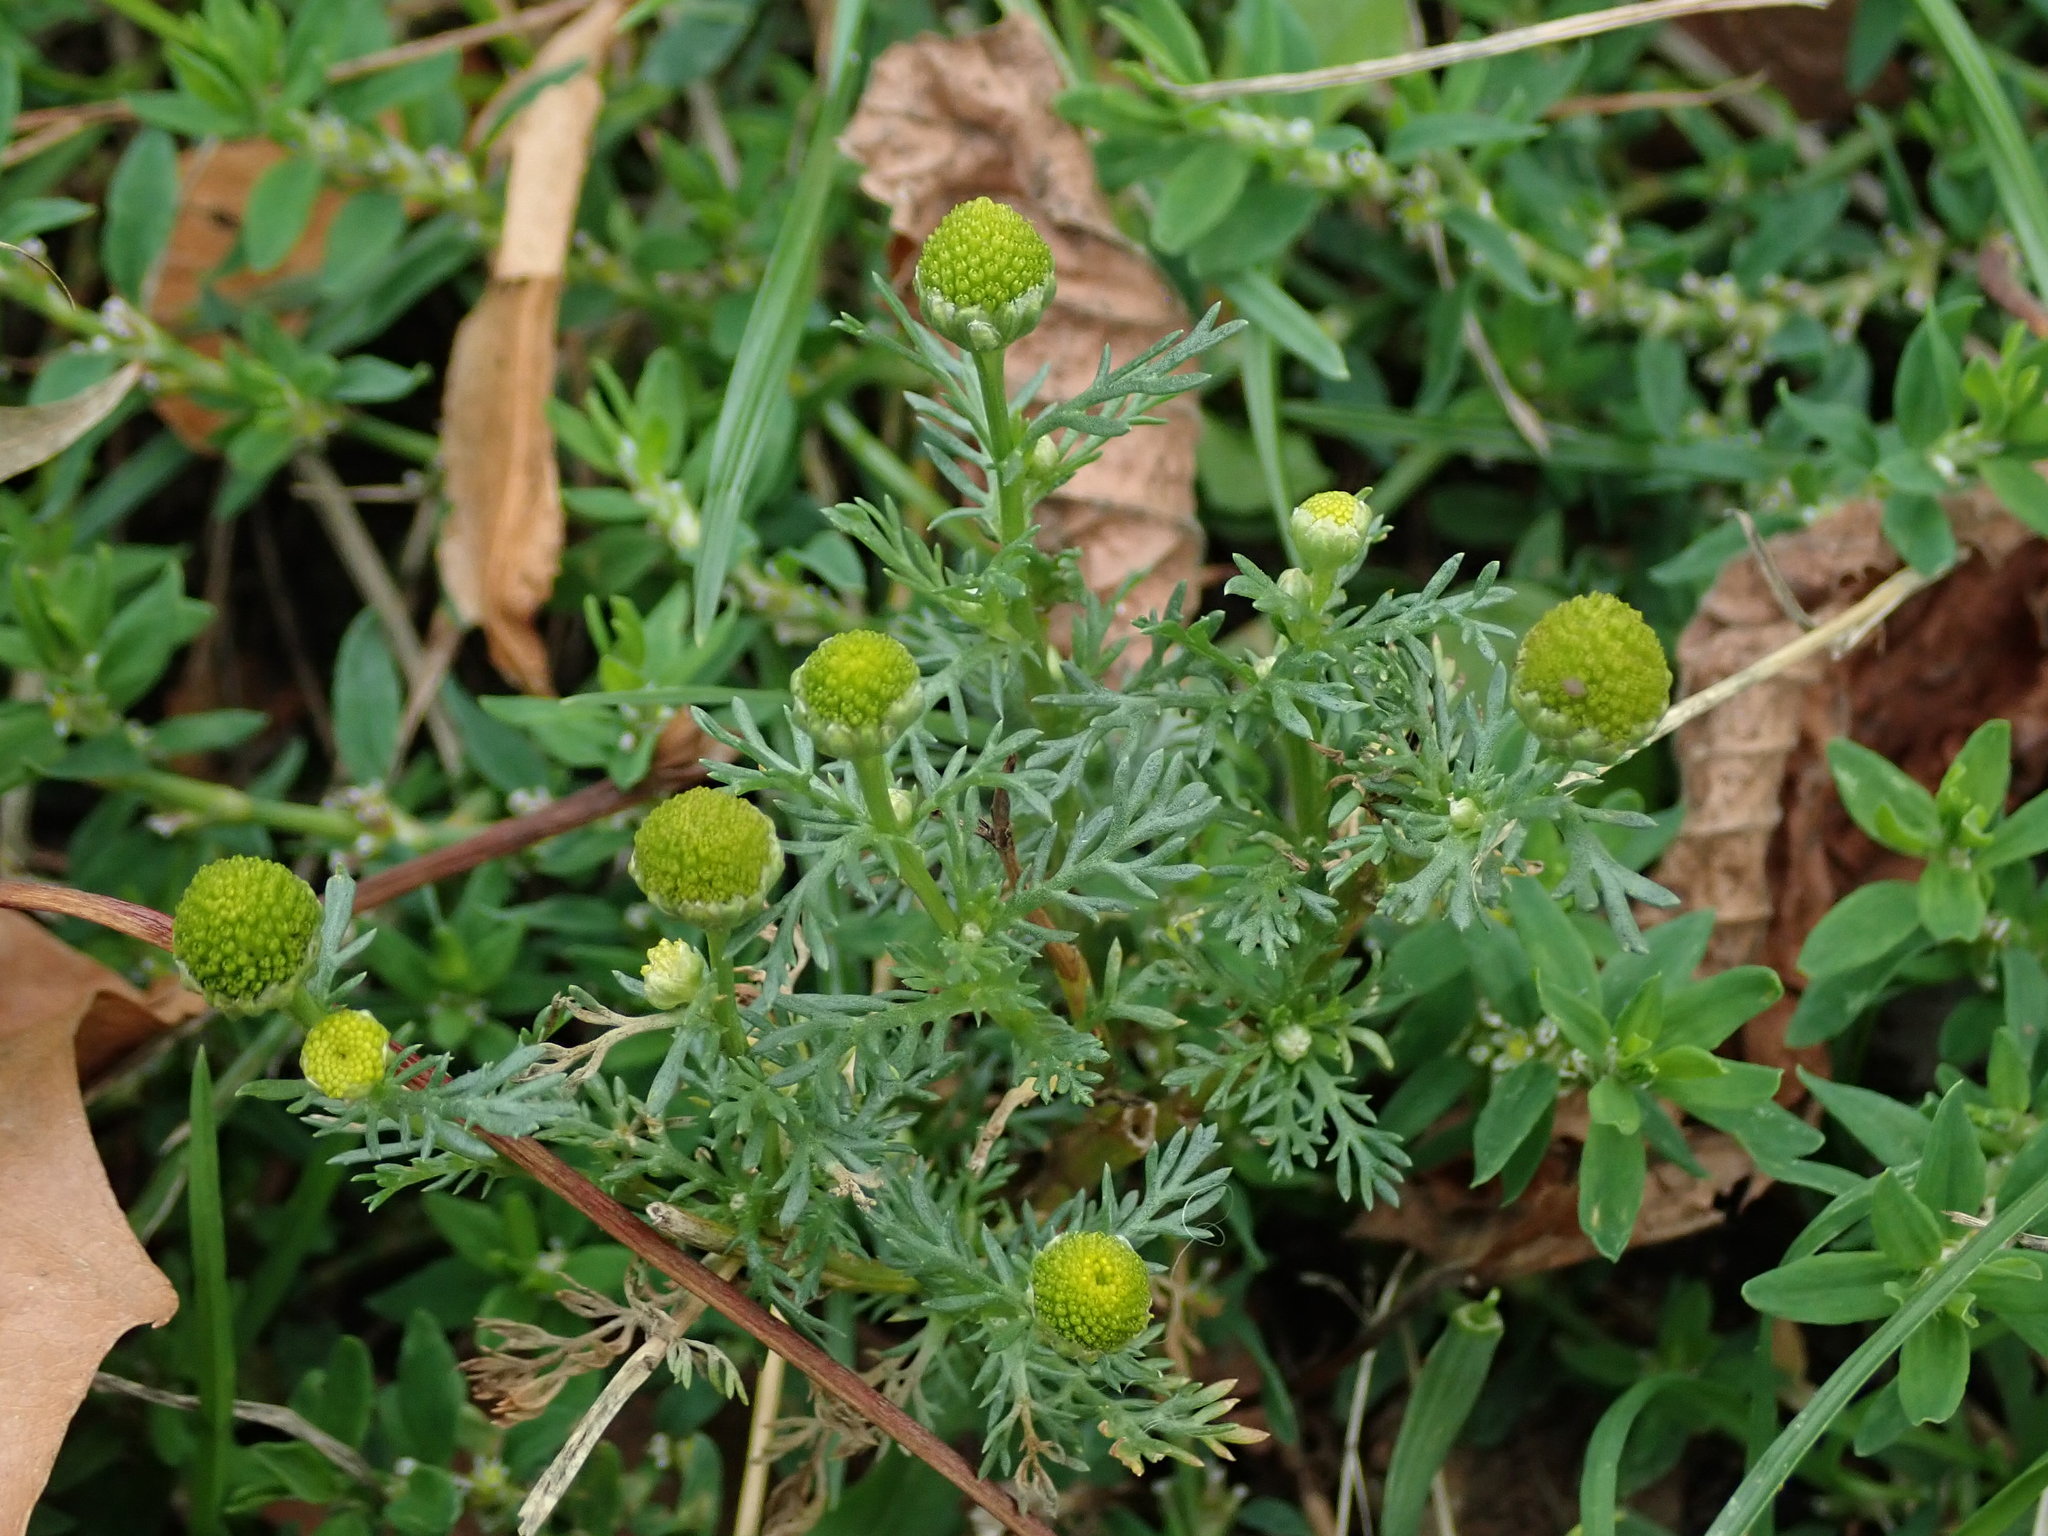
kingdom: Plantae
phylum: Tracheophyta
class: Magnoliopsida
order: Asterales
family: Asteraceae
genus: Matricaria
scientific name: Matricaria discoidea
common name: Disc mayweed
